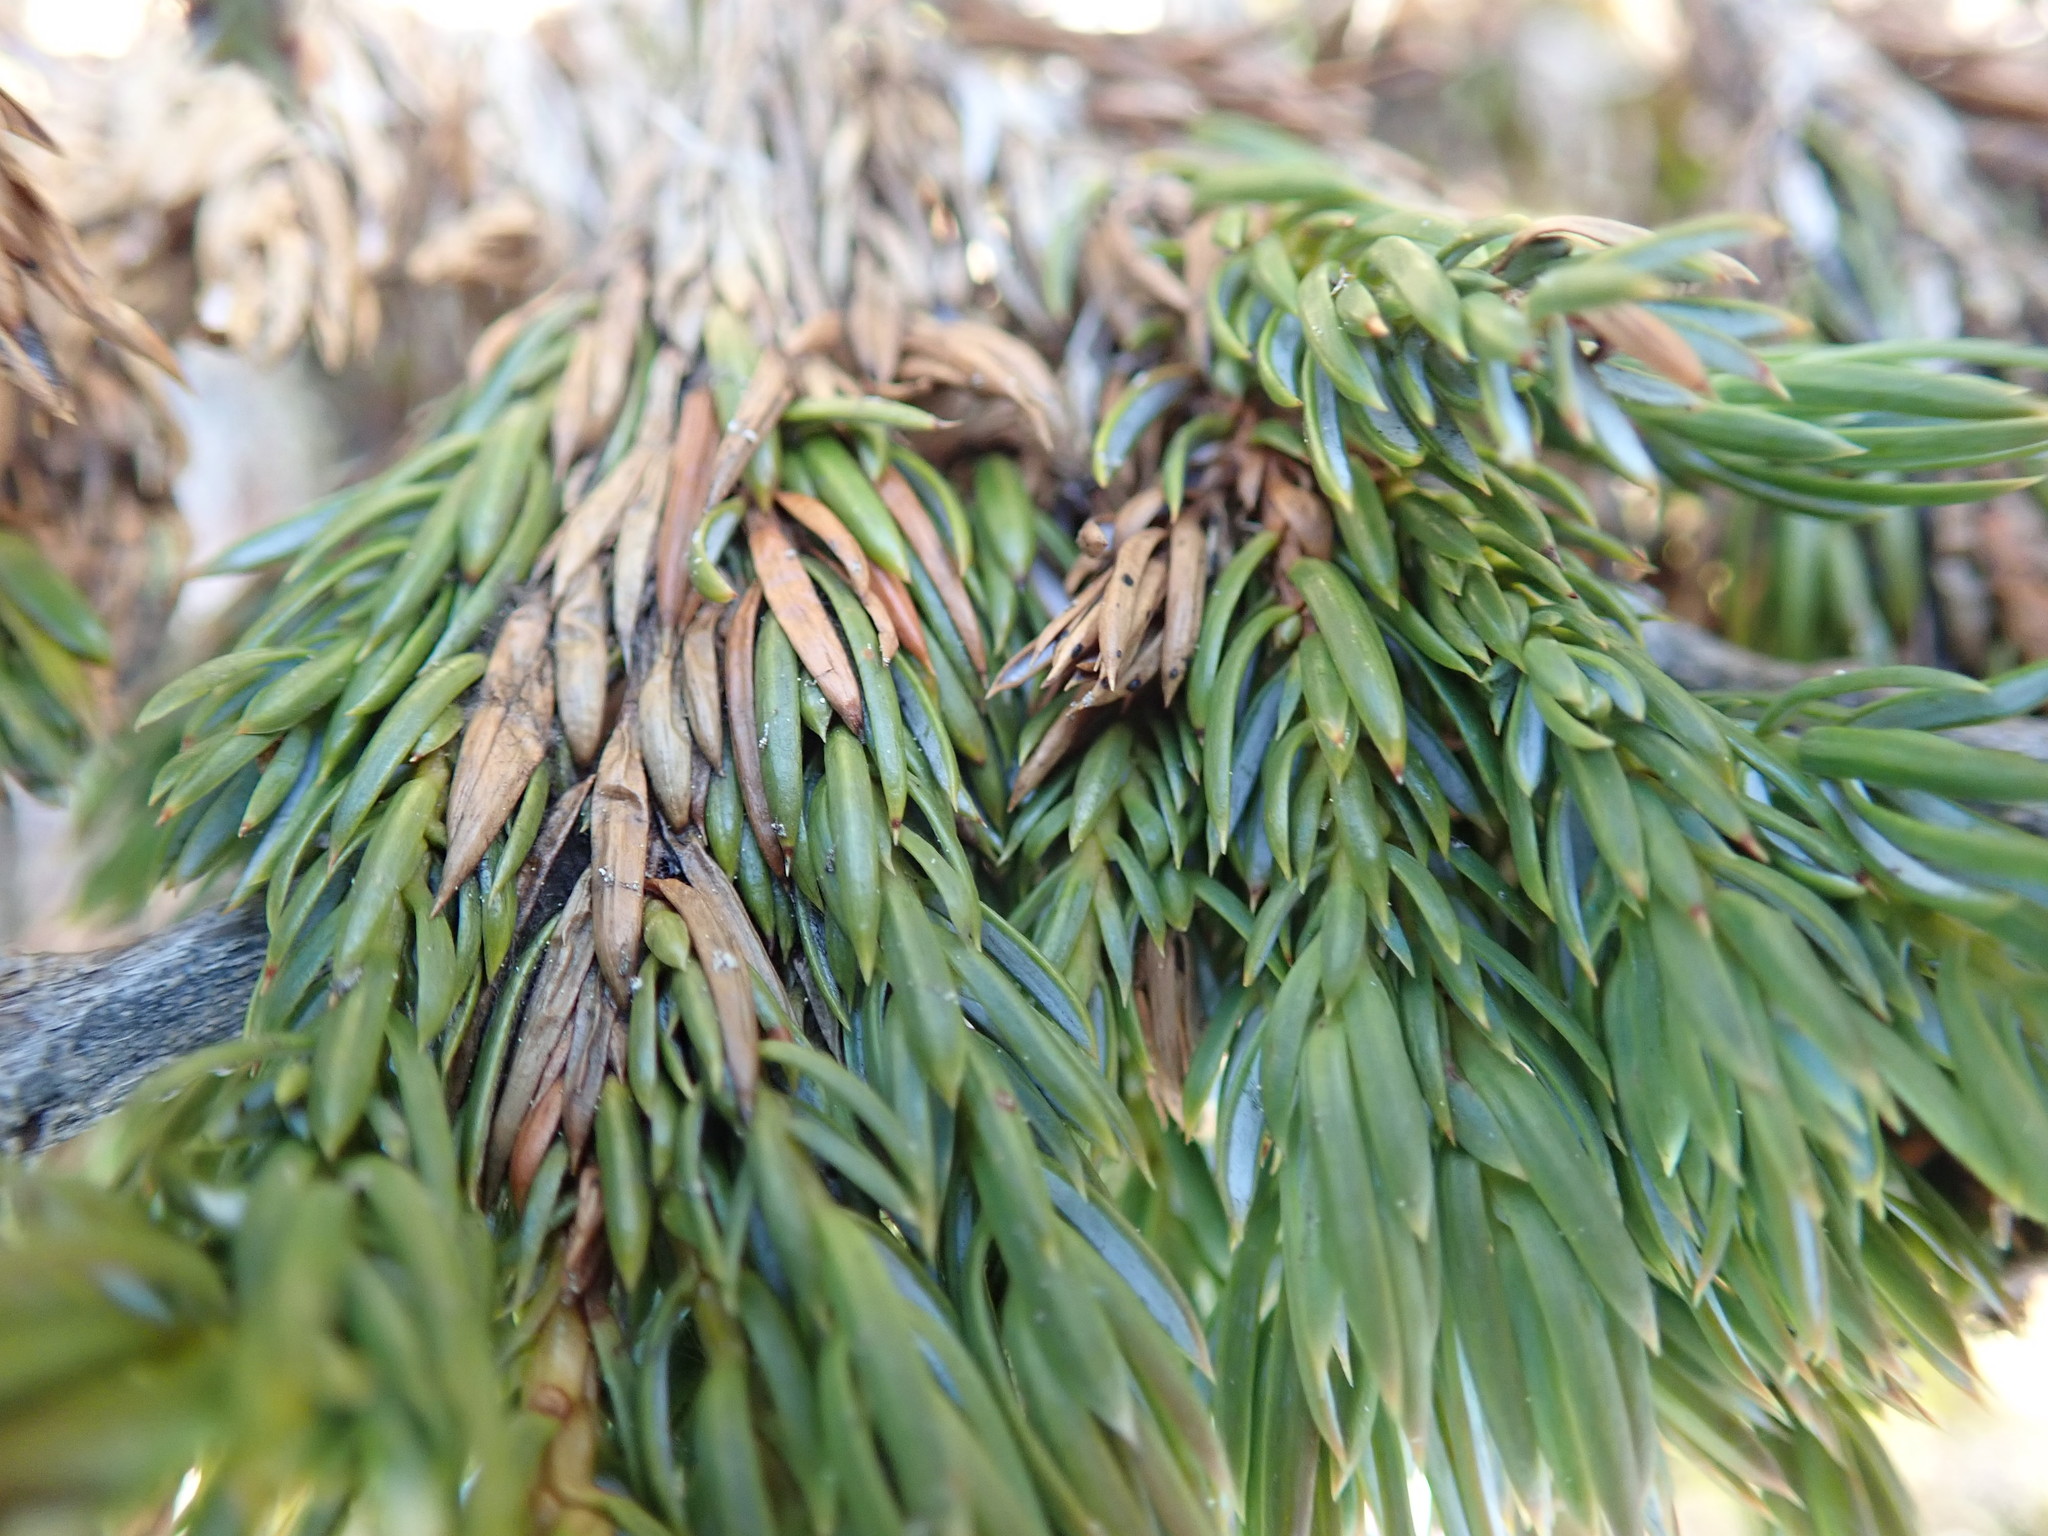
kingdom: Plantae
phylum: Tracheophyta
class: Pinopsida
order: Pinales
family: Cupressaceae
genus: Juniperus
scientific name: Juniperus communis
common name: Common juniper
